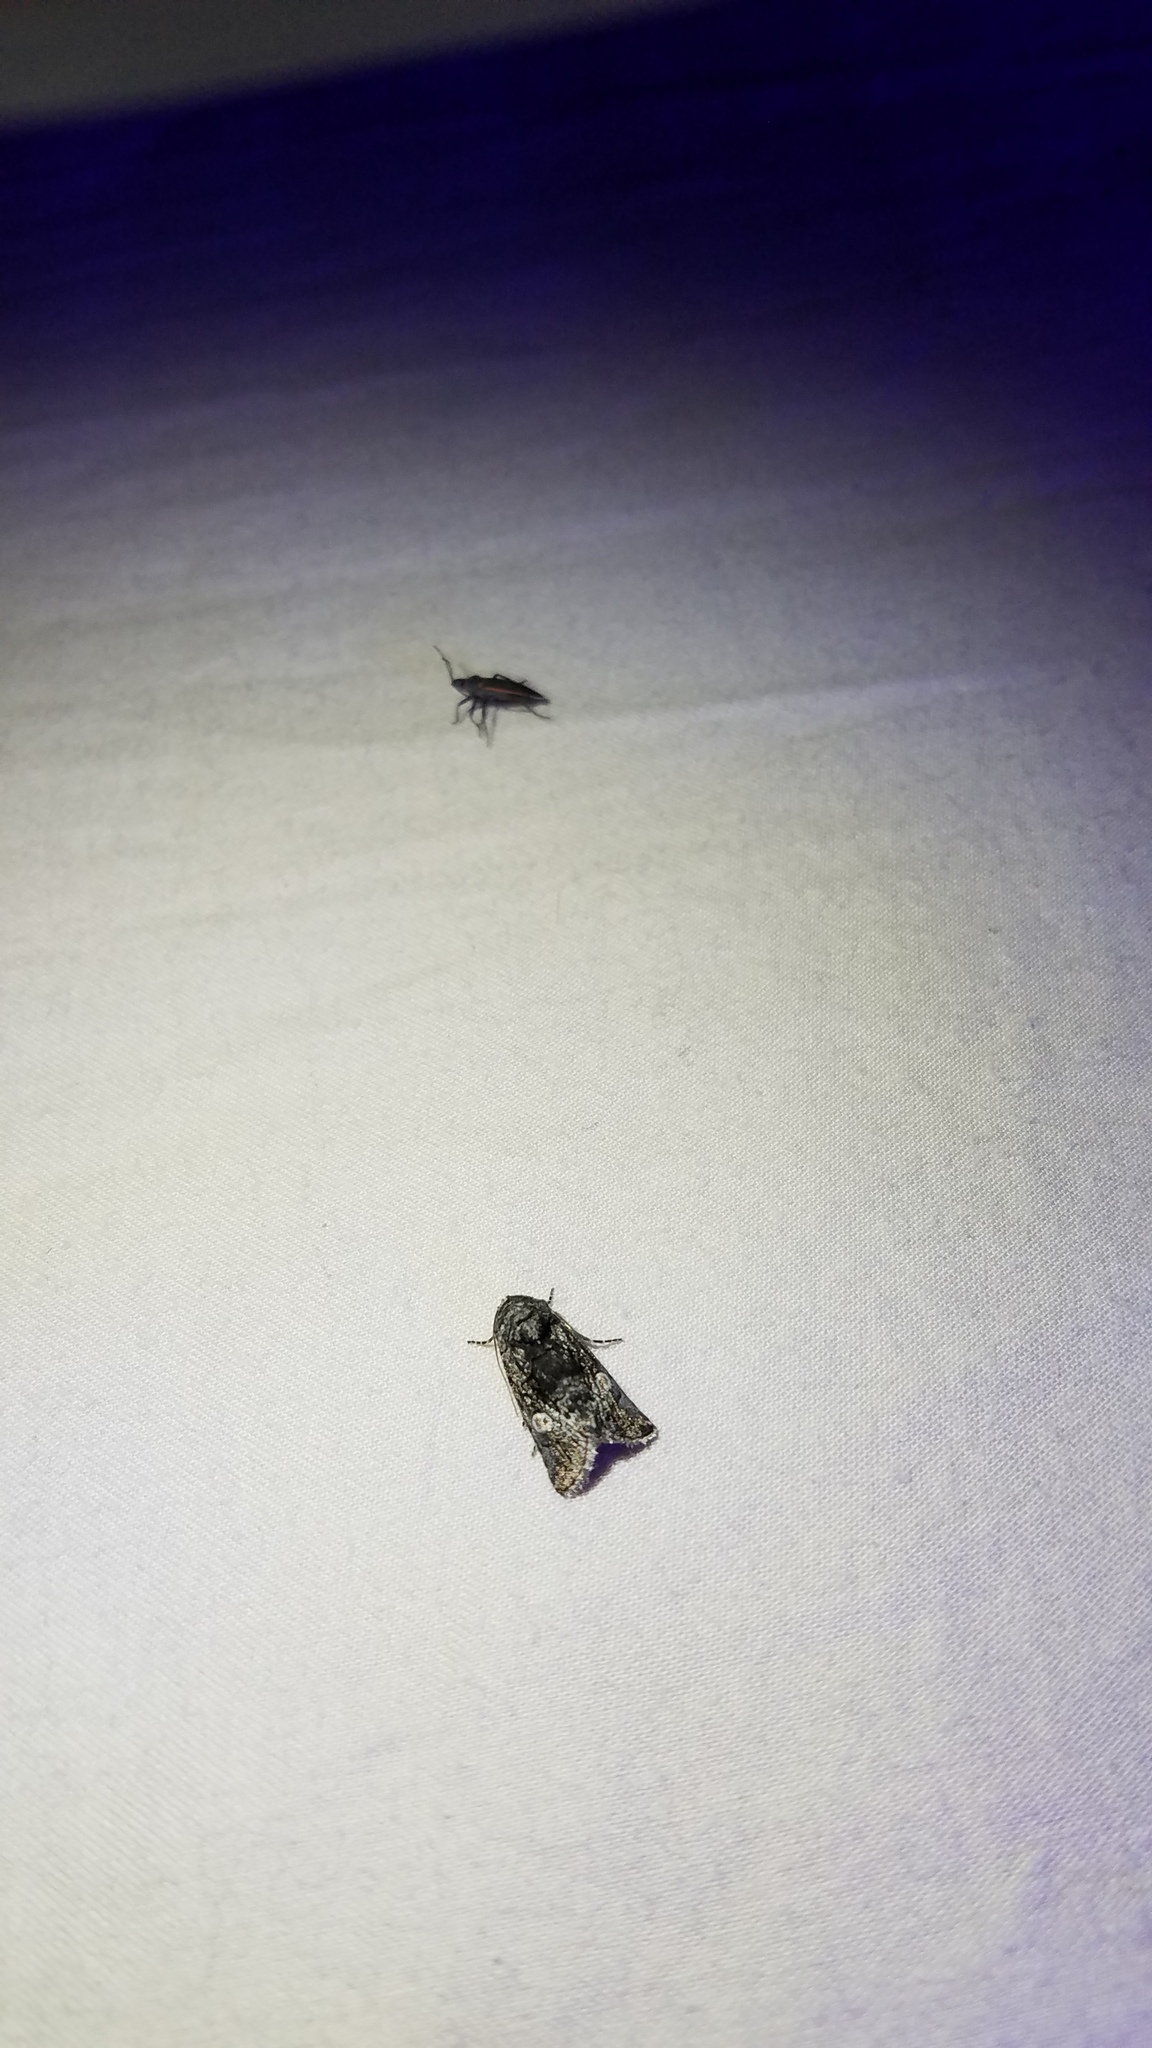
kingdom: Animalia
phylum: Arthropoda
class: Insecta
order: Lepidoptera
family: Noctuidae
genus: Copanarta
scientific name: Copanarta aurea
